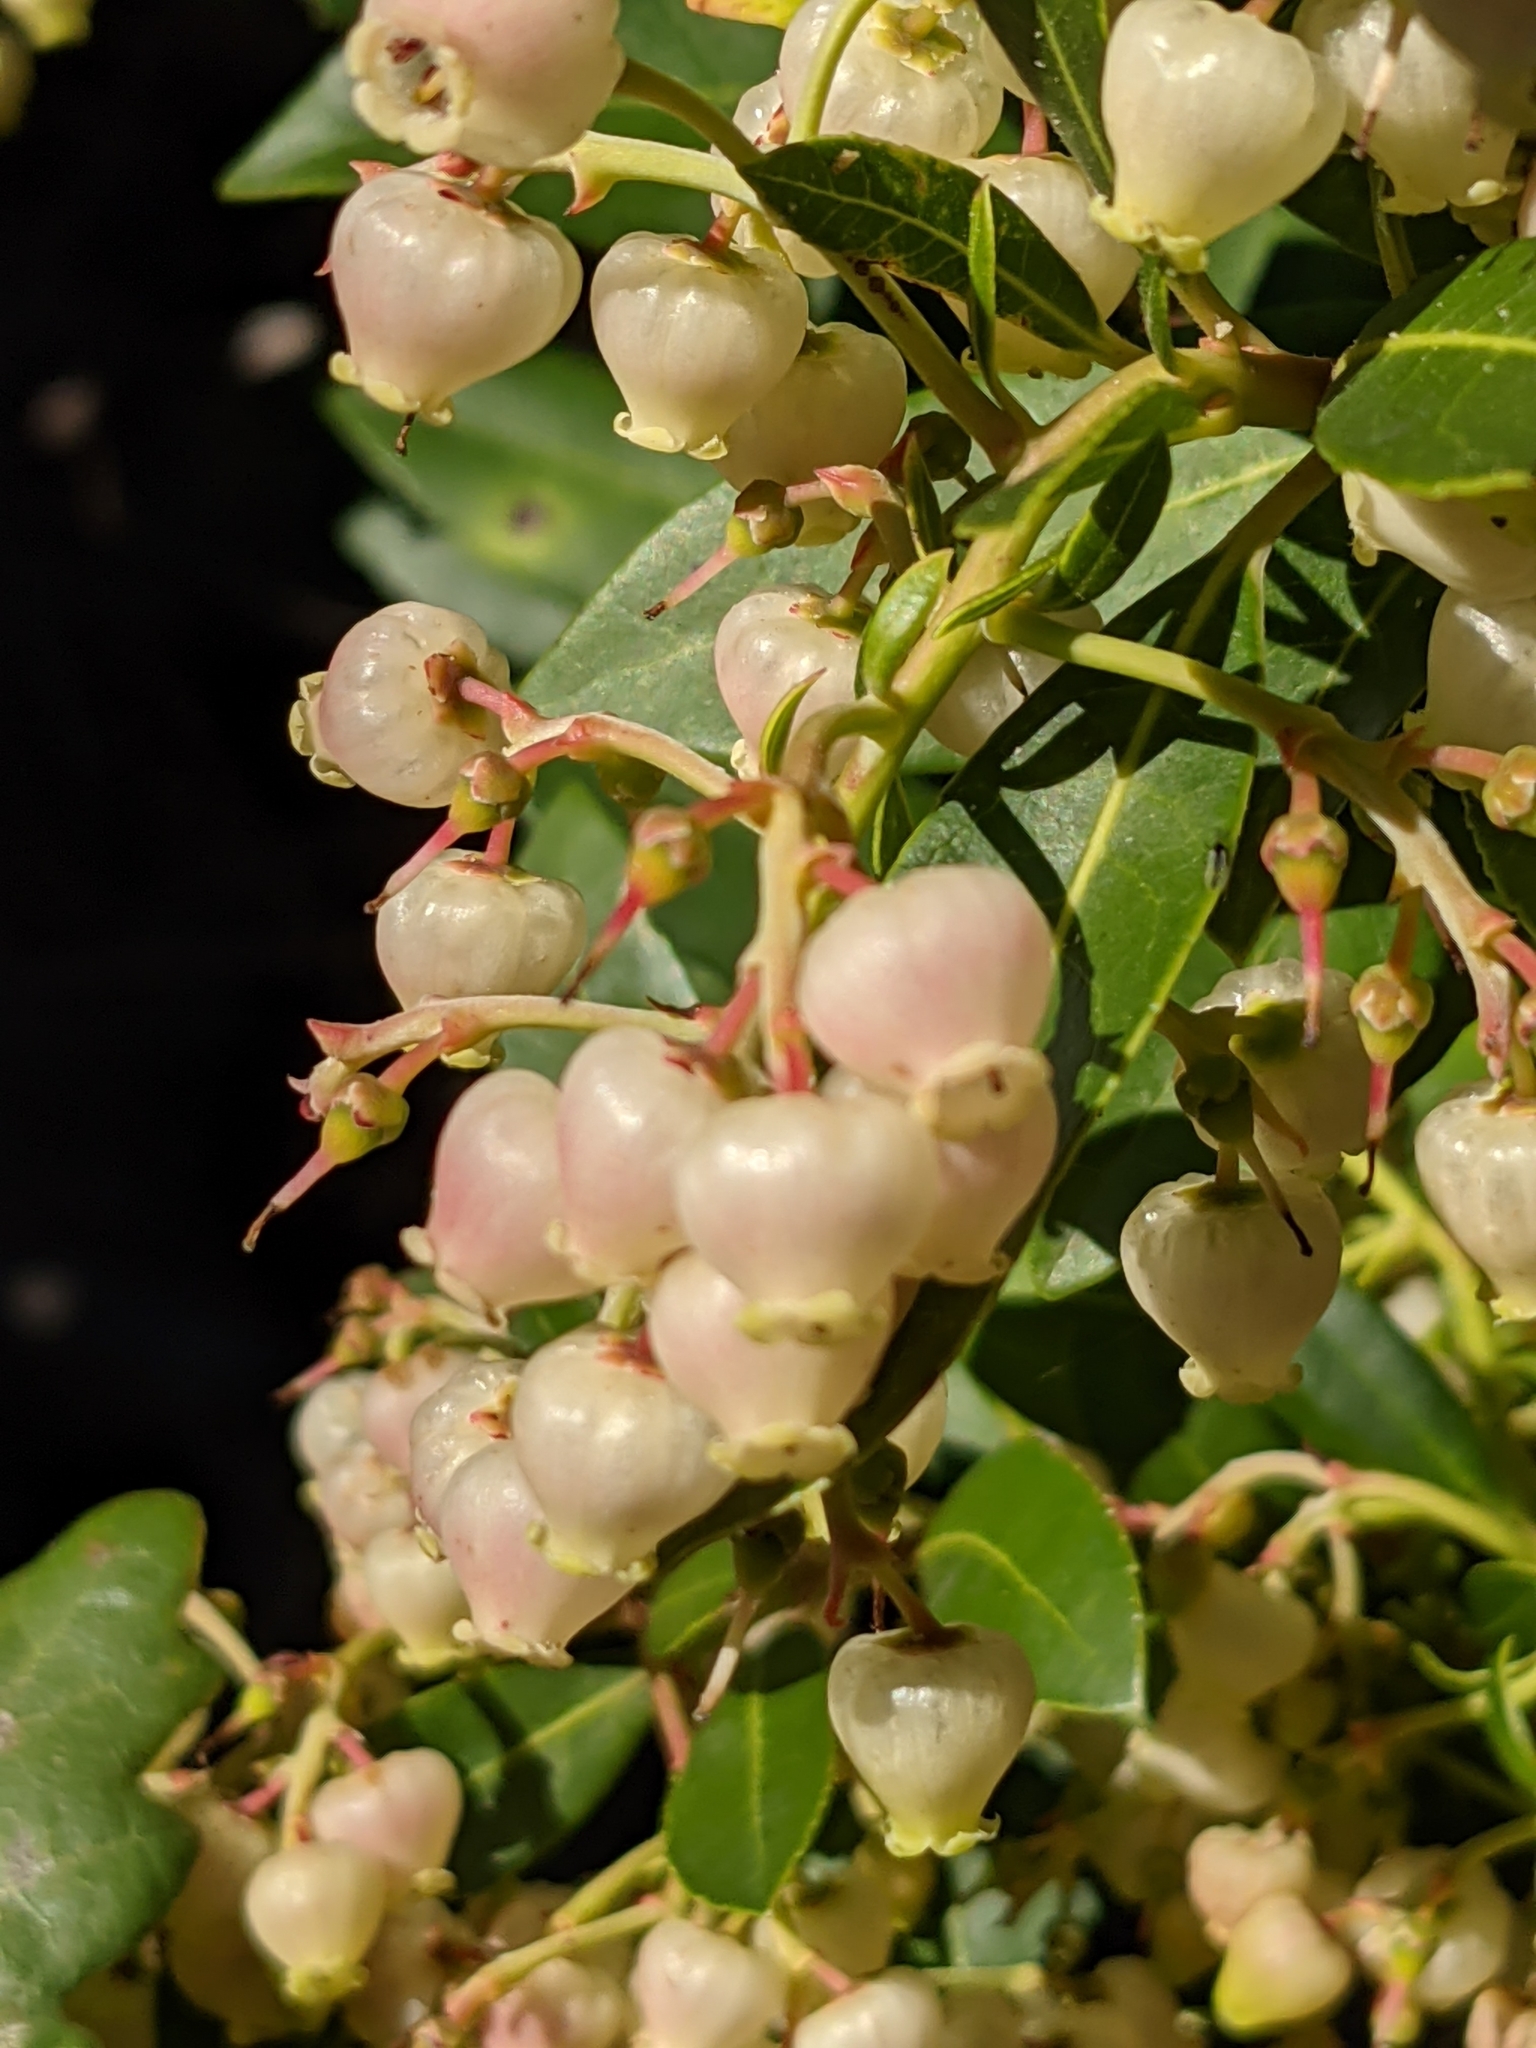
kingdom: Plantae
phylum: Tracheophyta
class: Magnoliopsida
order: Ericales
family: Ericaceae
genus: Arbutus
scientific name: Arbutus unedo
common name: Strawberry-tree
